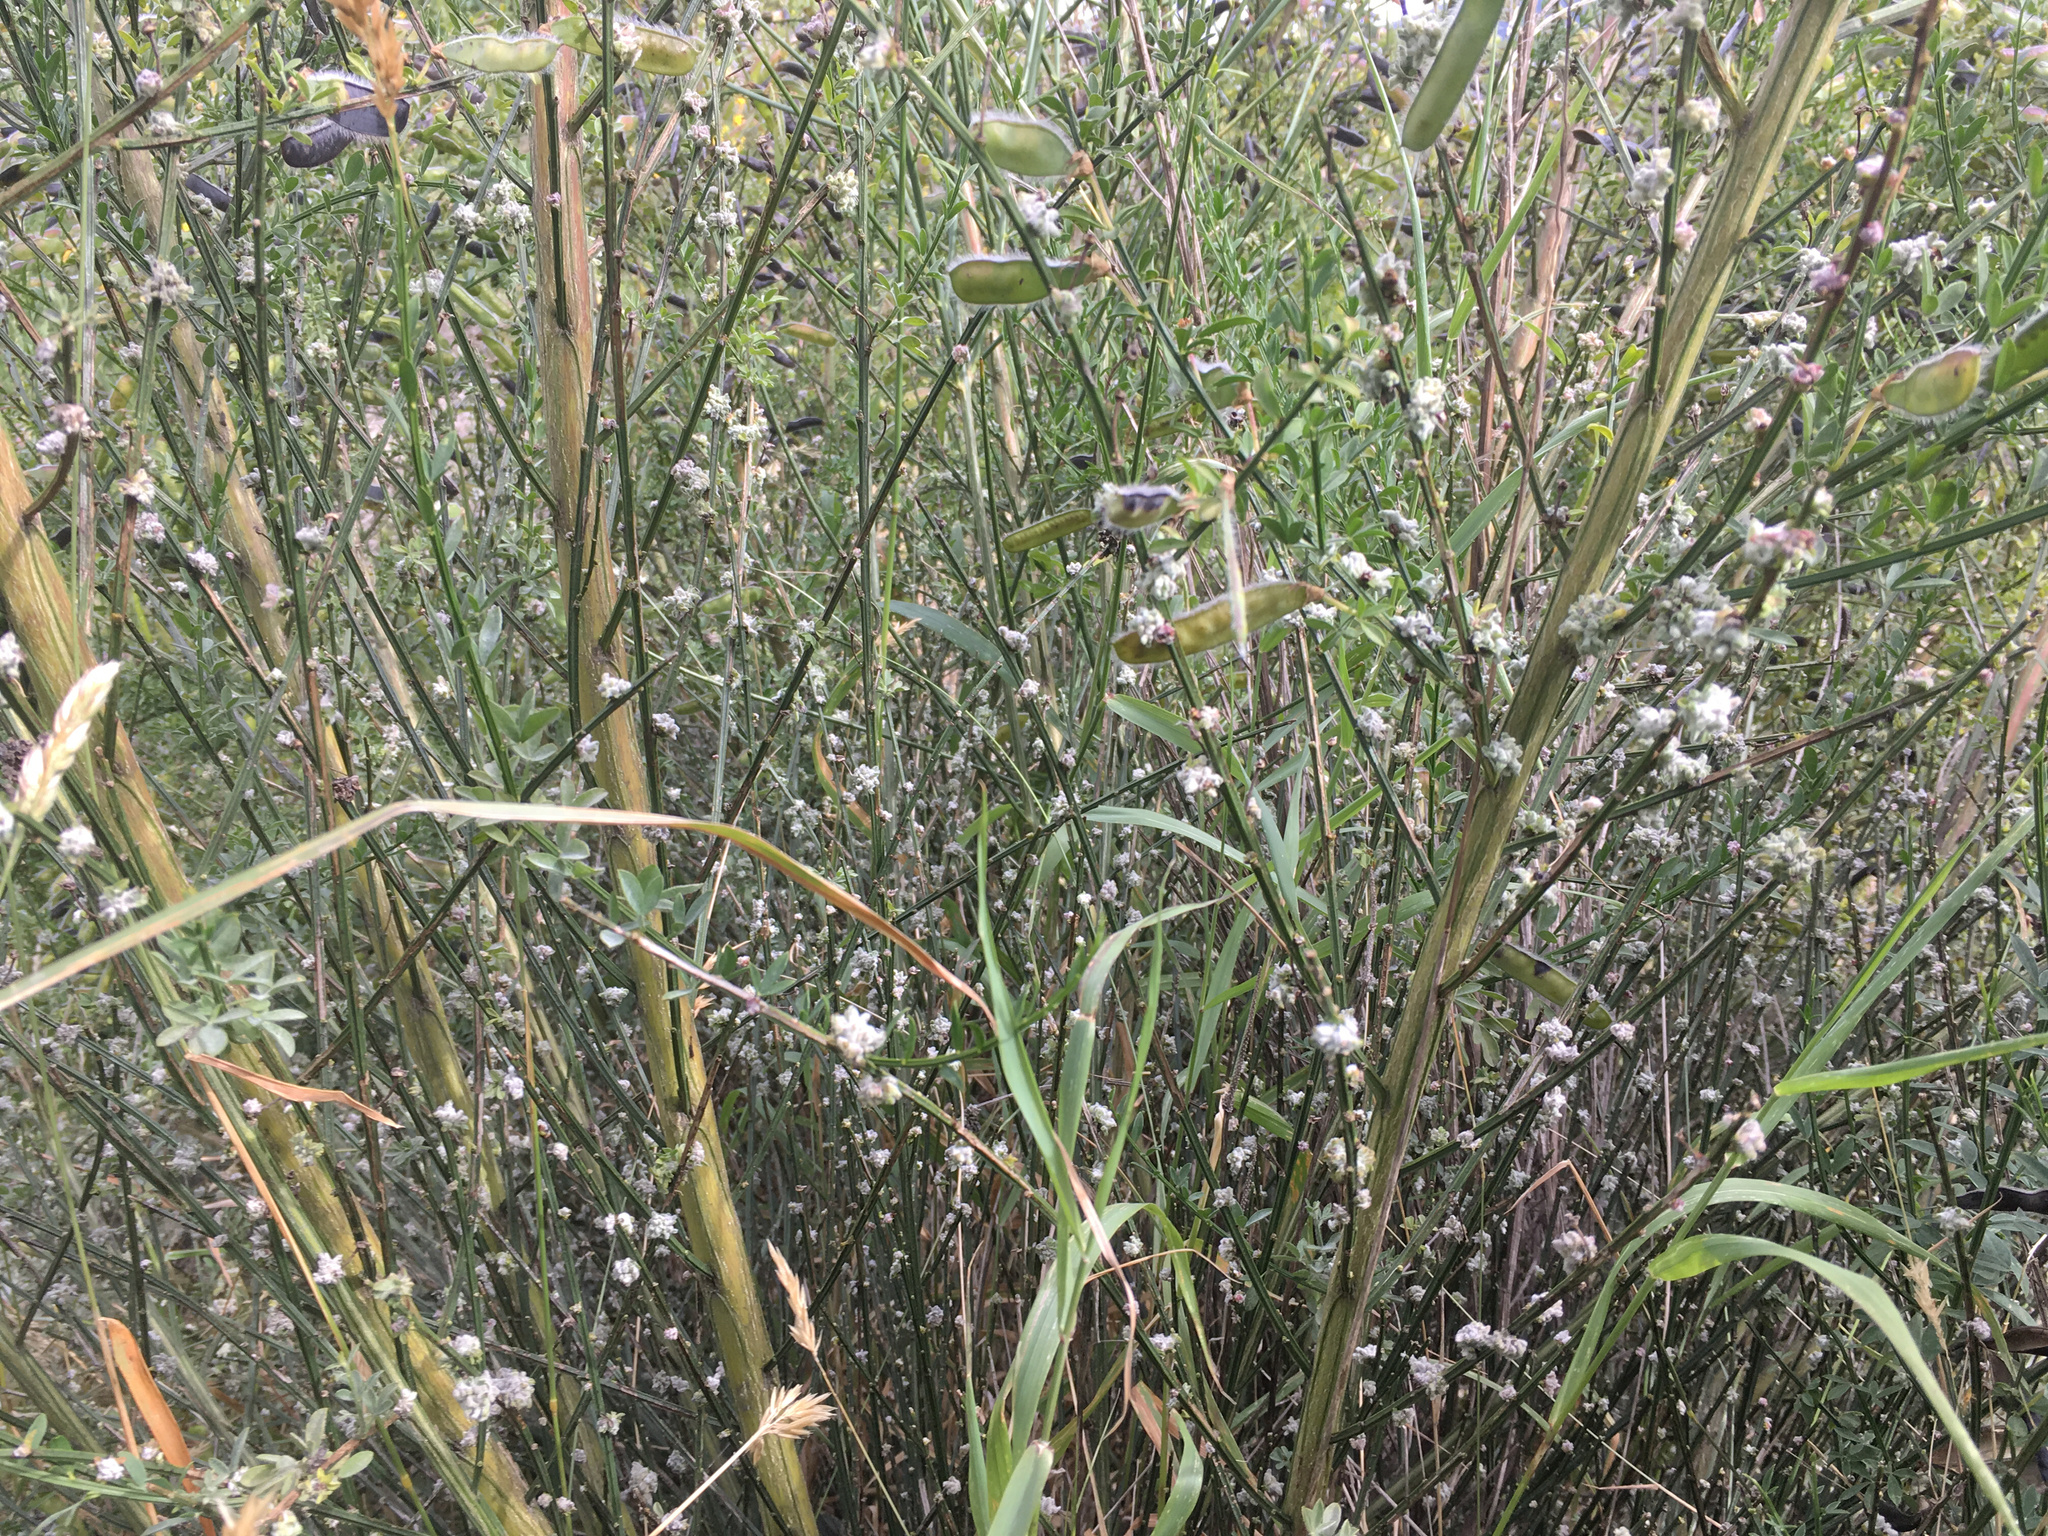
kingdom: Animalia
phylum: Arthropoda
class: Arachnida
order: Trombidiformes
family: Eriophyidae
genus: Aceria
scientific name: Aceria genistae
